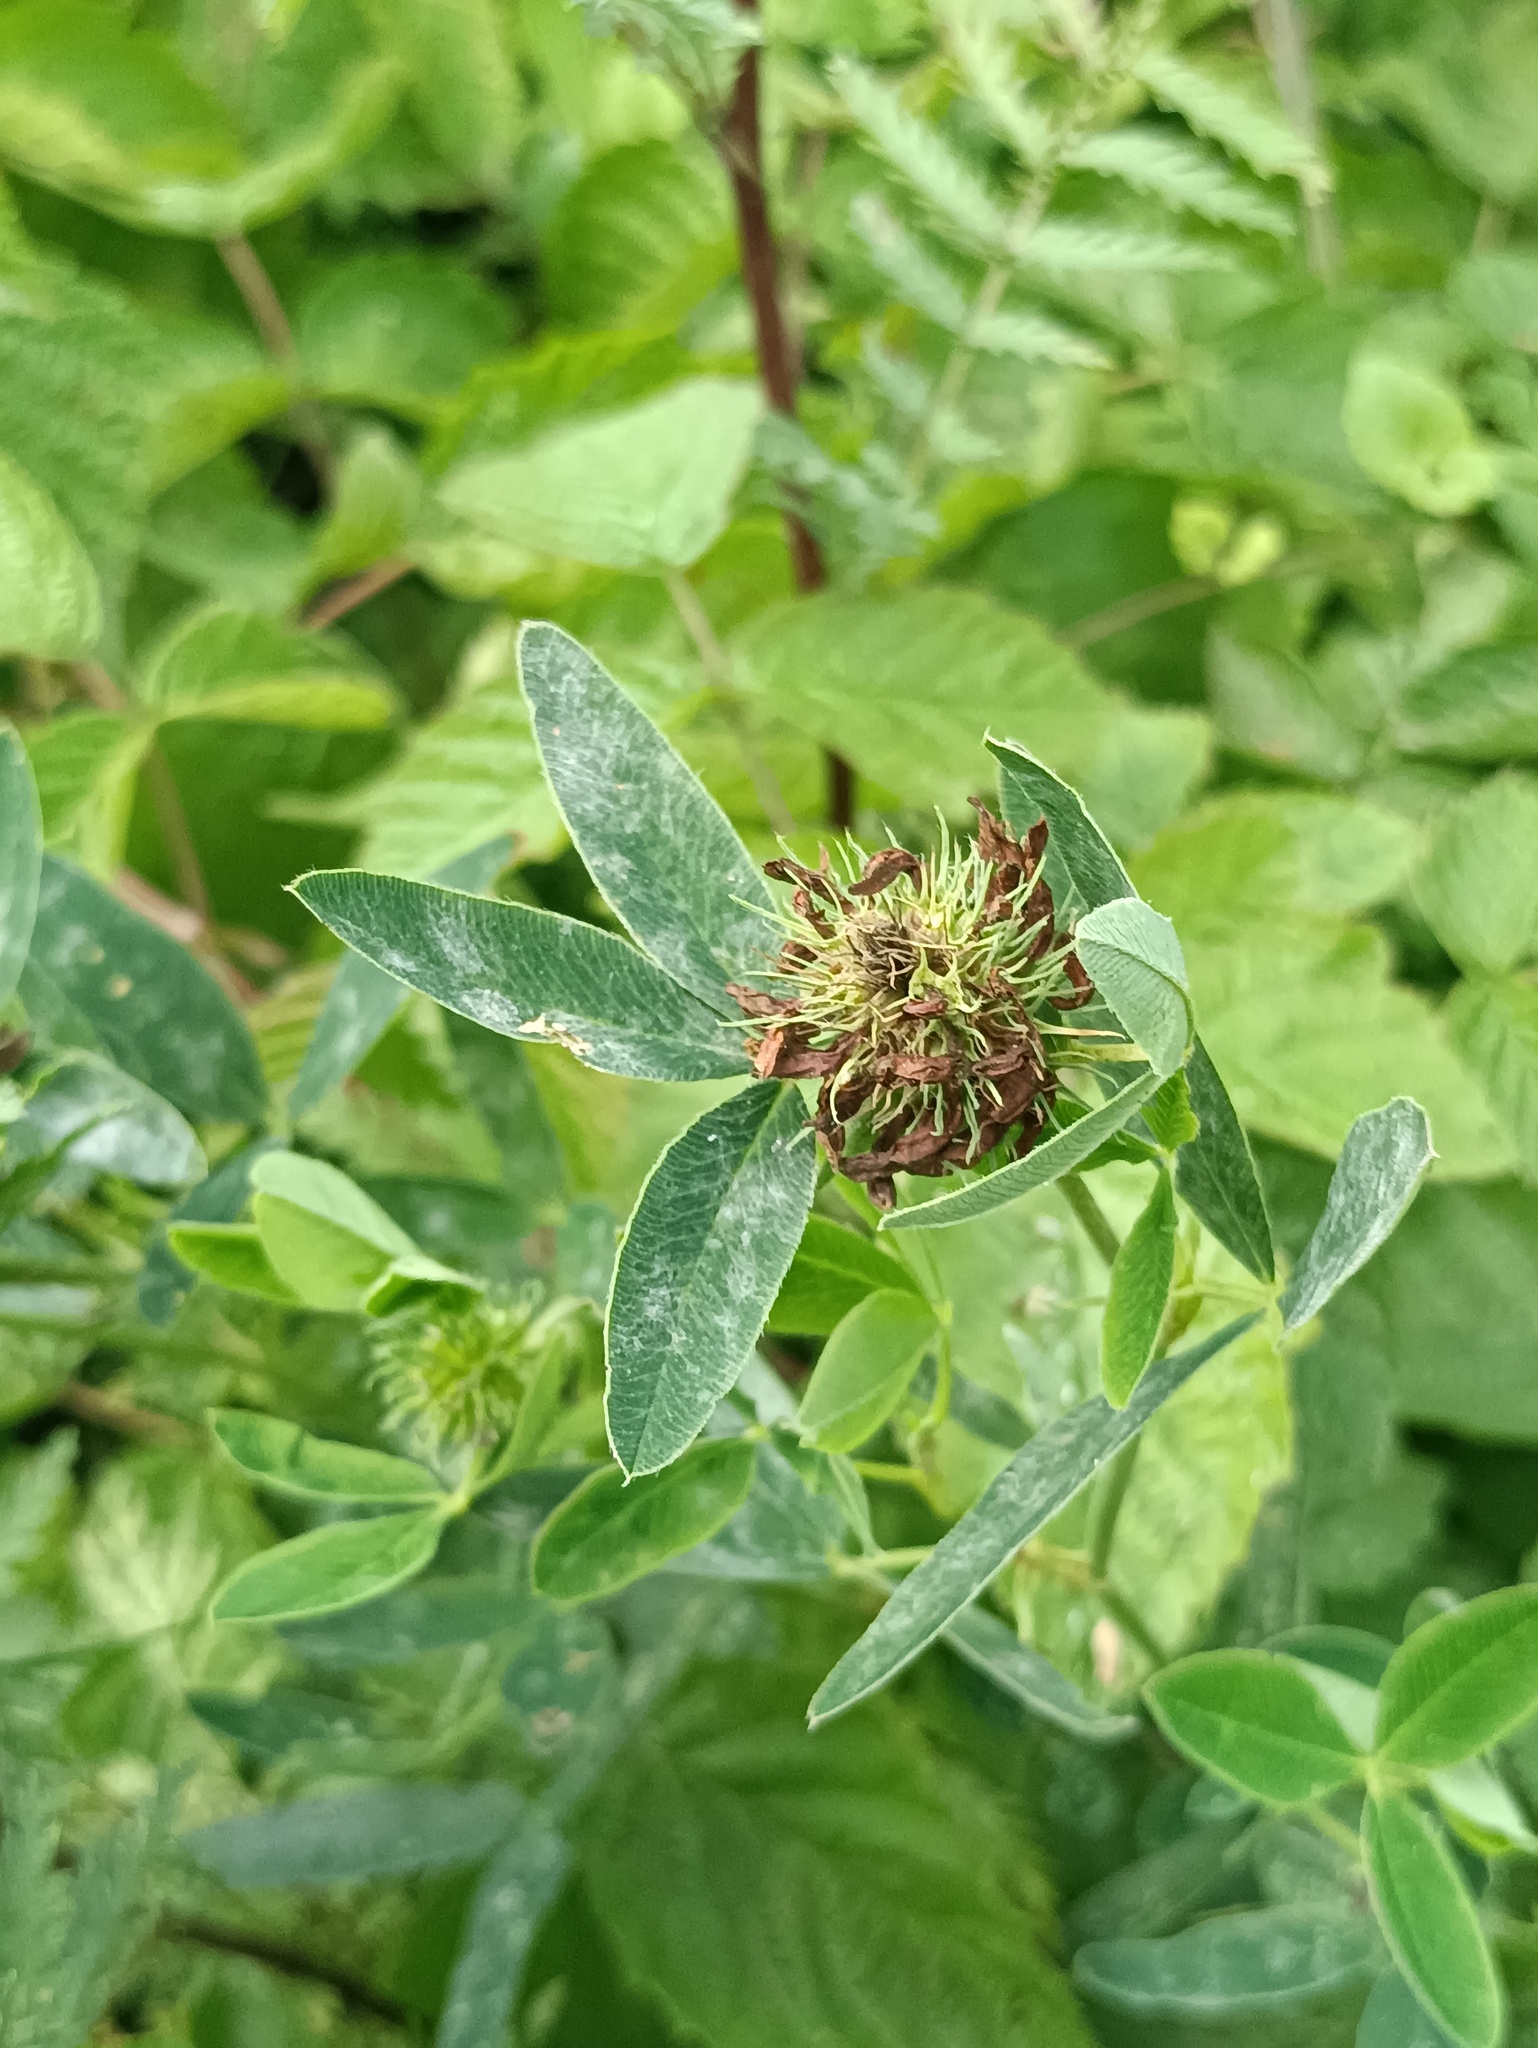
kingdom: Plantae
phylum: Tracheophyta
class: Magnoliopsida
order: Fabales
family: Fabaceae
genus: Trifolium
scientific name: Trifolium medium
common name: Zigzag clover
